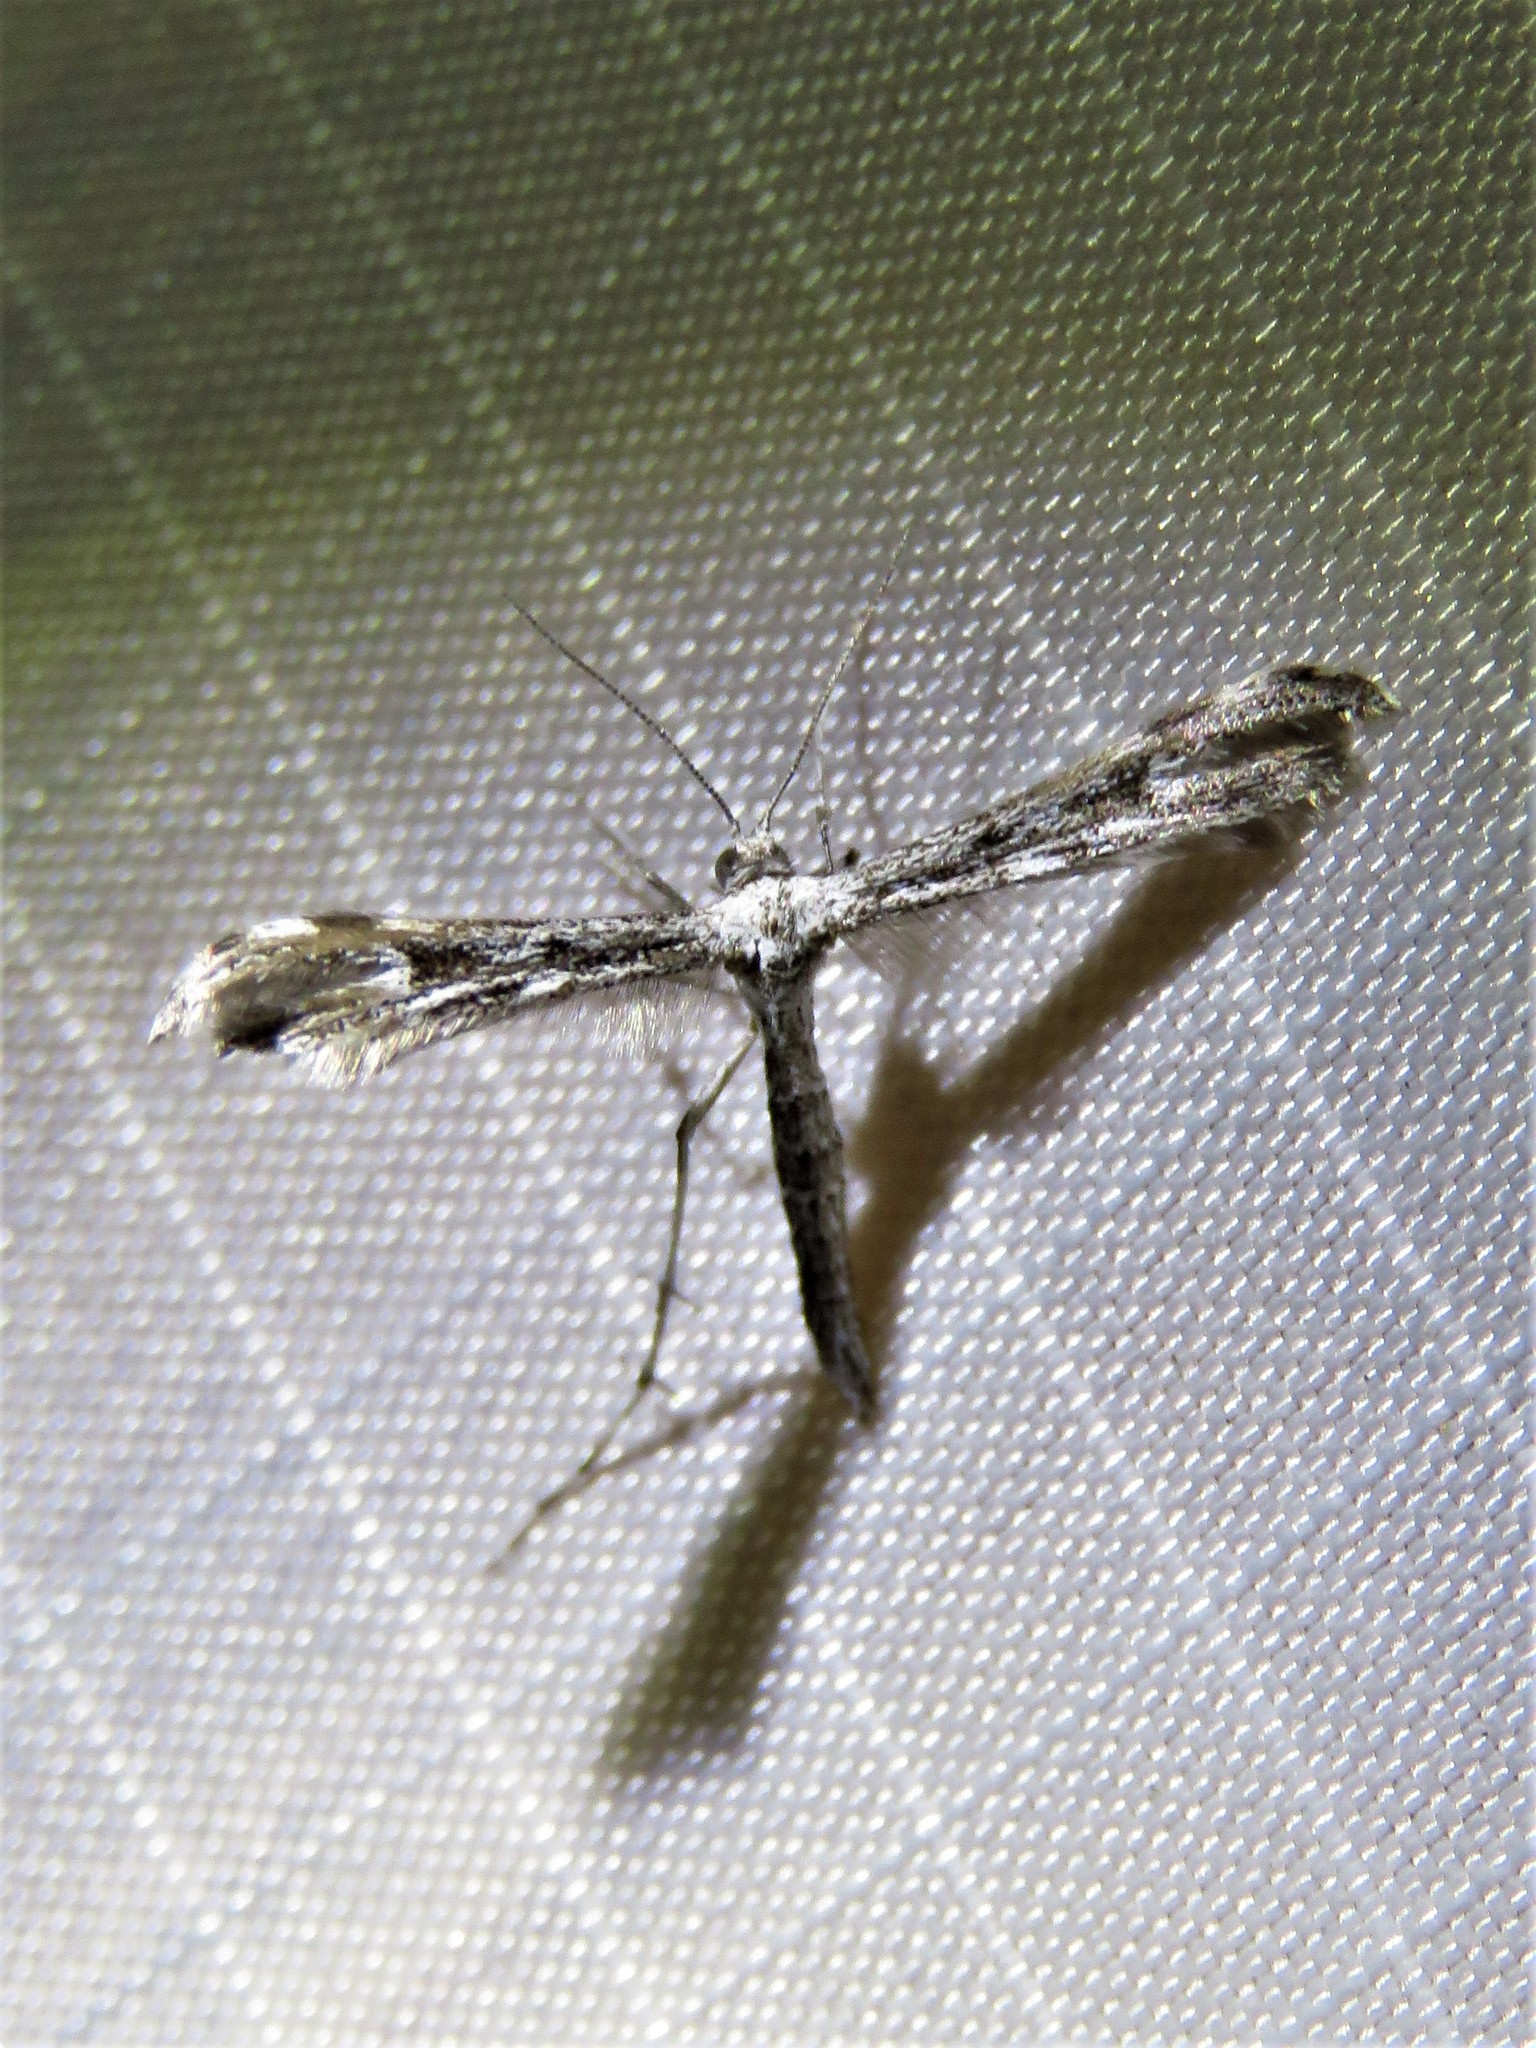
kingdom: Animalia
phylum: Arthropoda
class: Insecta
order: Lepidoptera
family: Pterophoridae
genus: Hellinsia
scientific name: Hellinsia inquinatus
